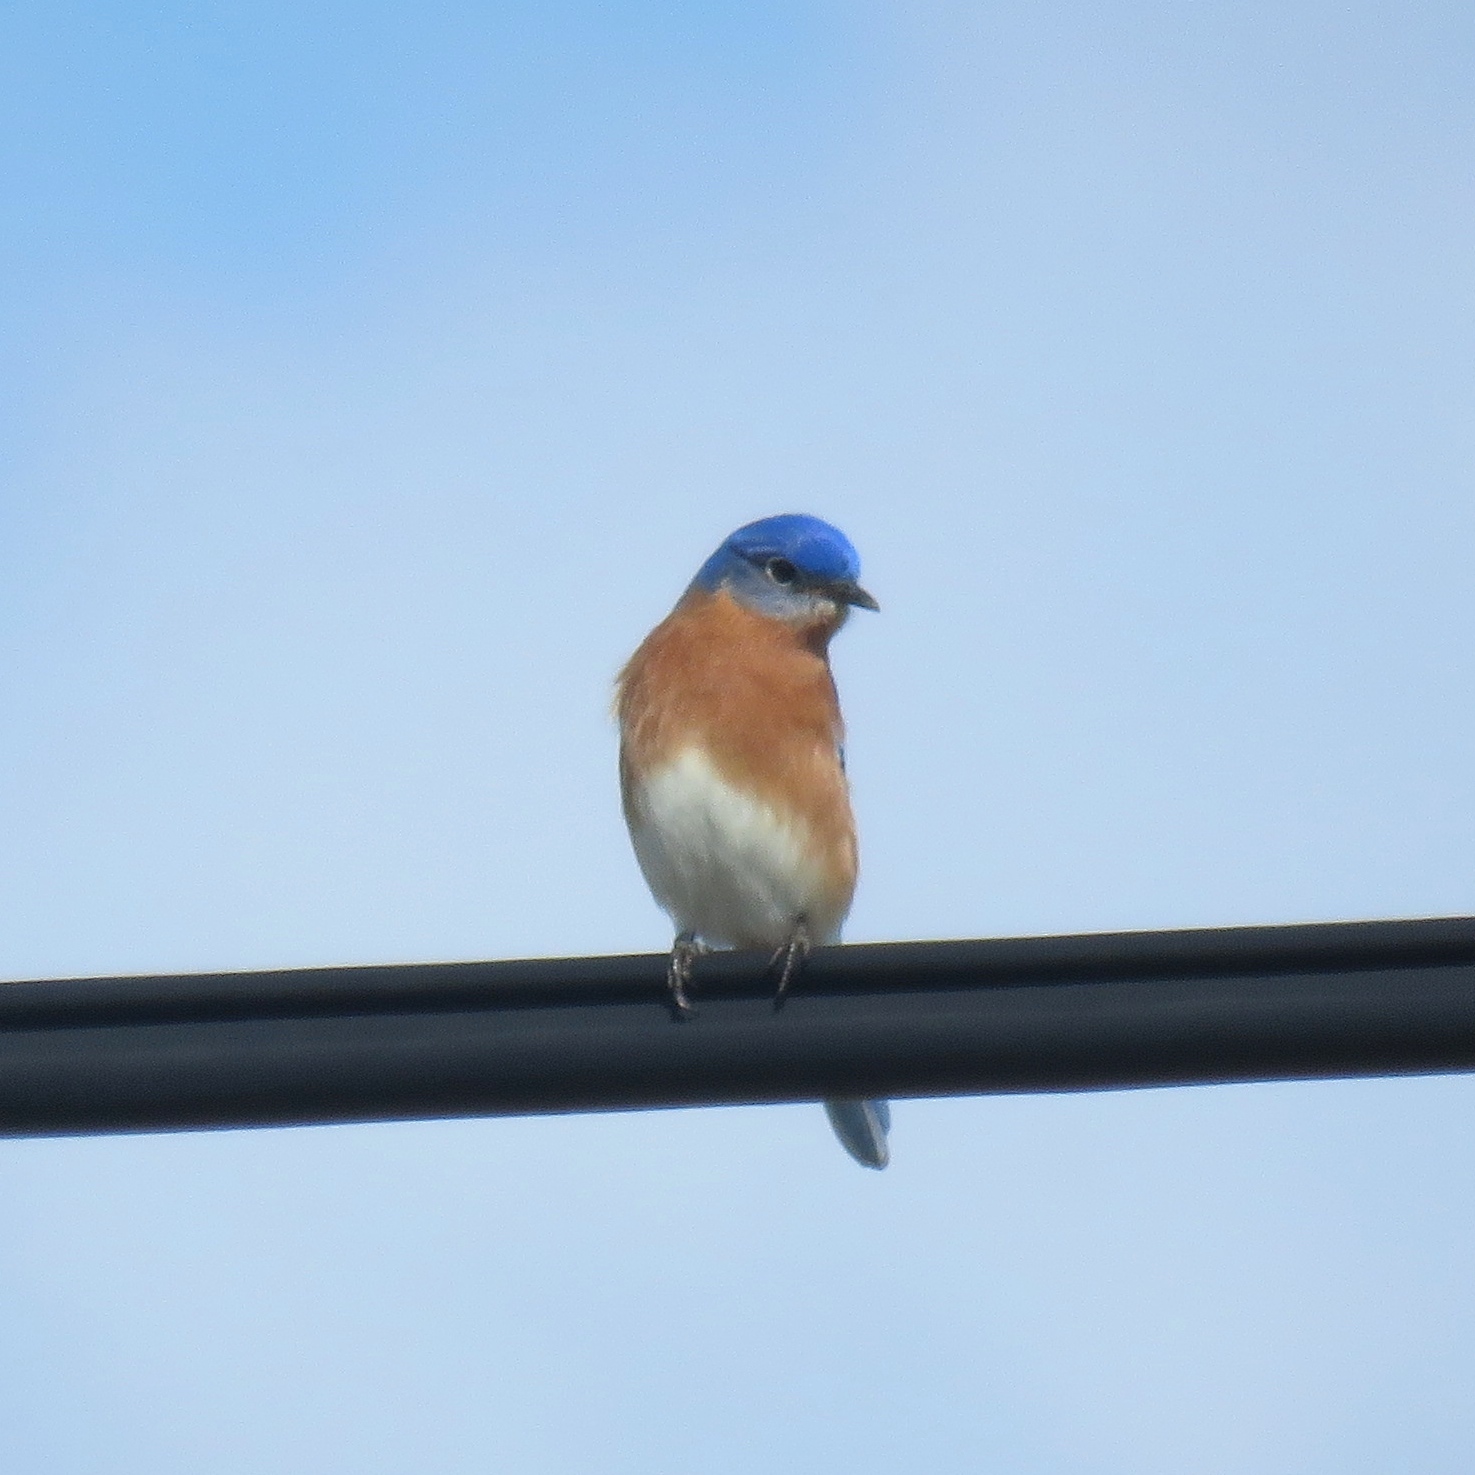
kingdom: Animalia
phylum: Chordata
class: Aves
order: Passeriformes
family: Turdidae
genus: Sialia
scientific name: Sialia sialis
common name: Eastern bluebird
